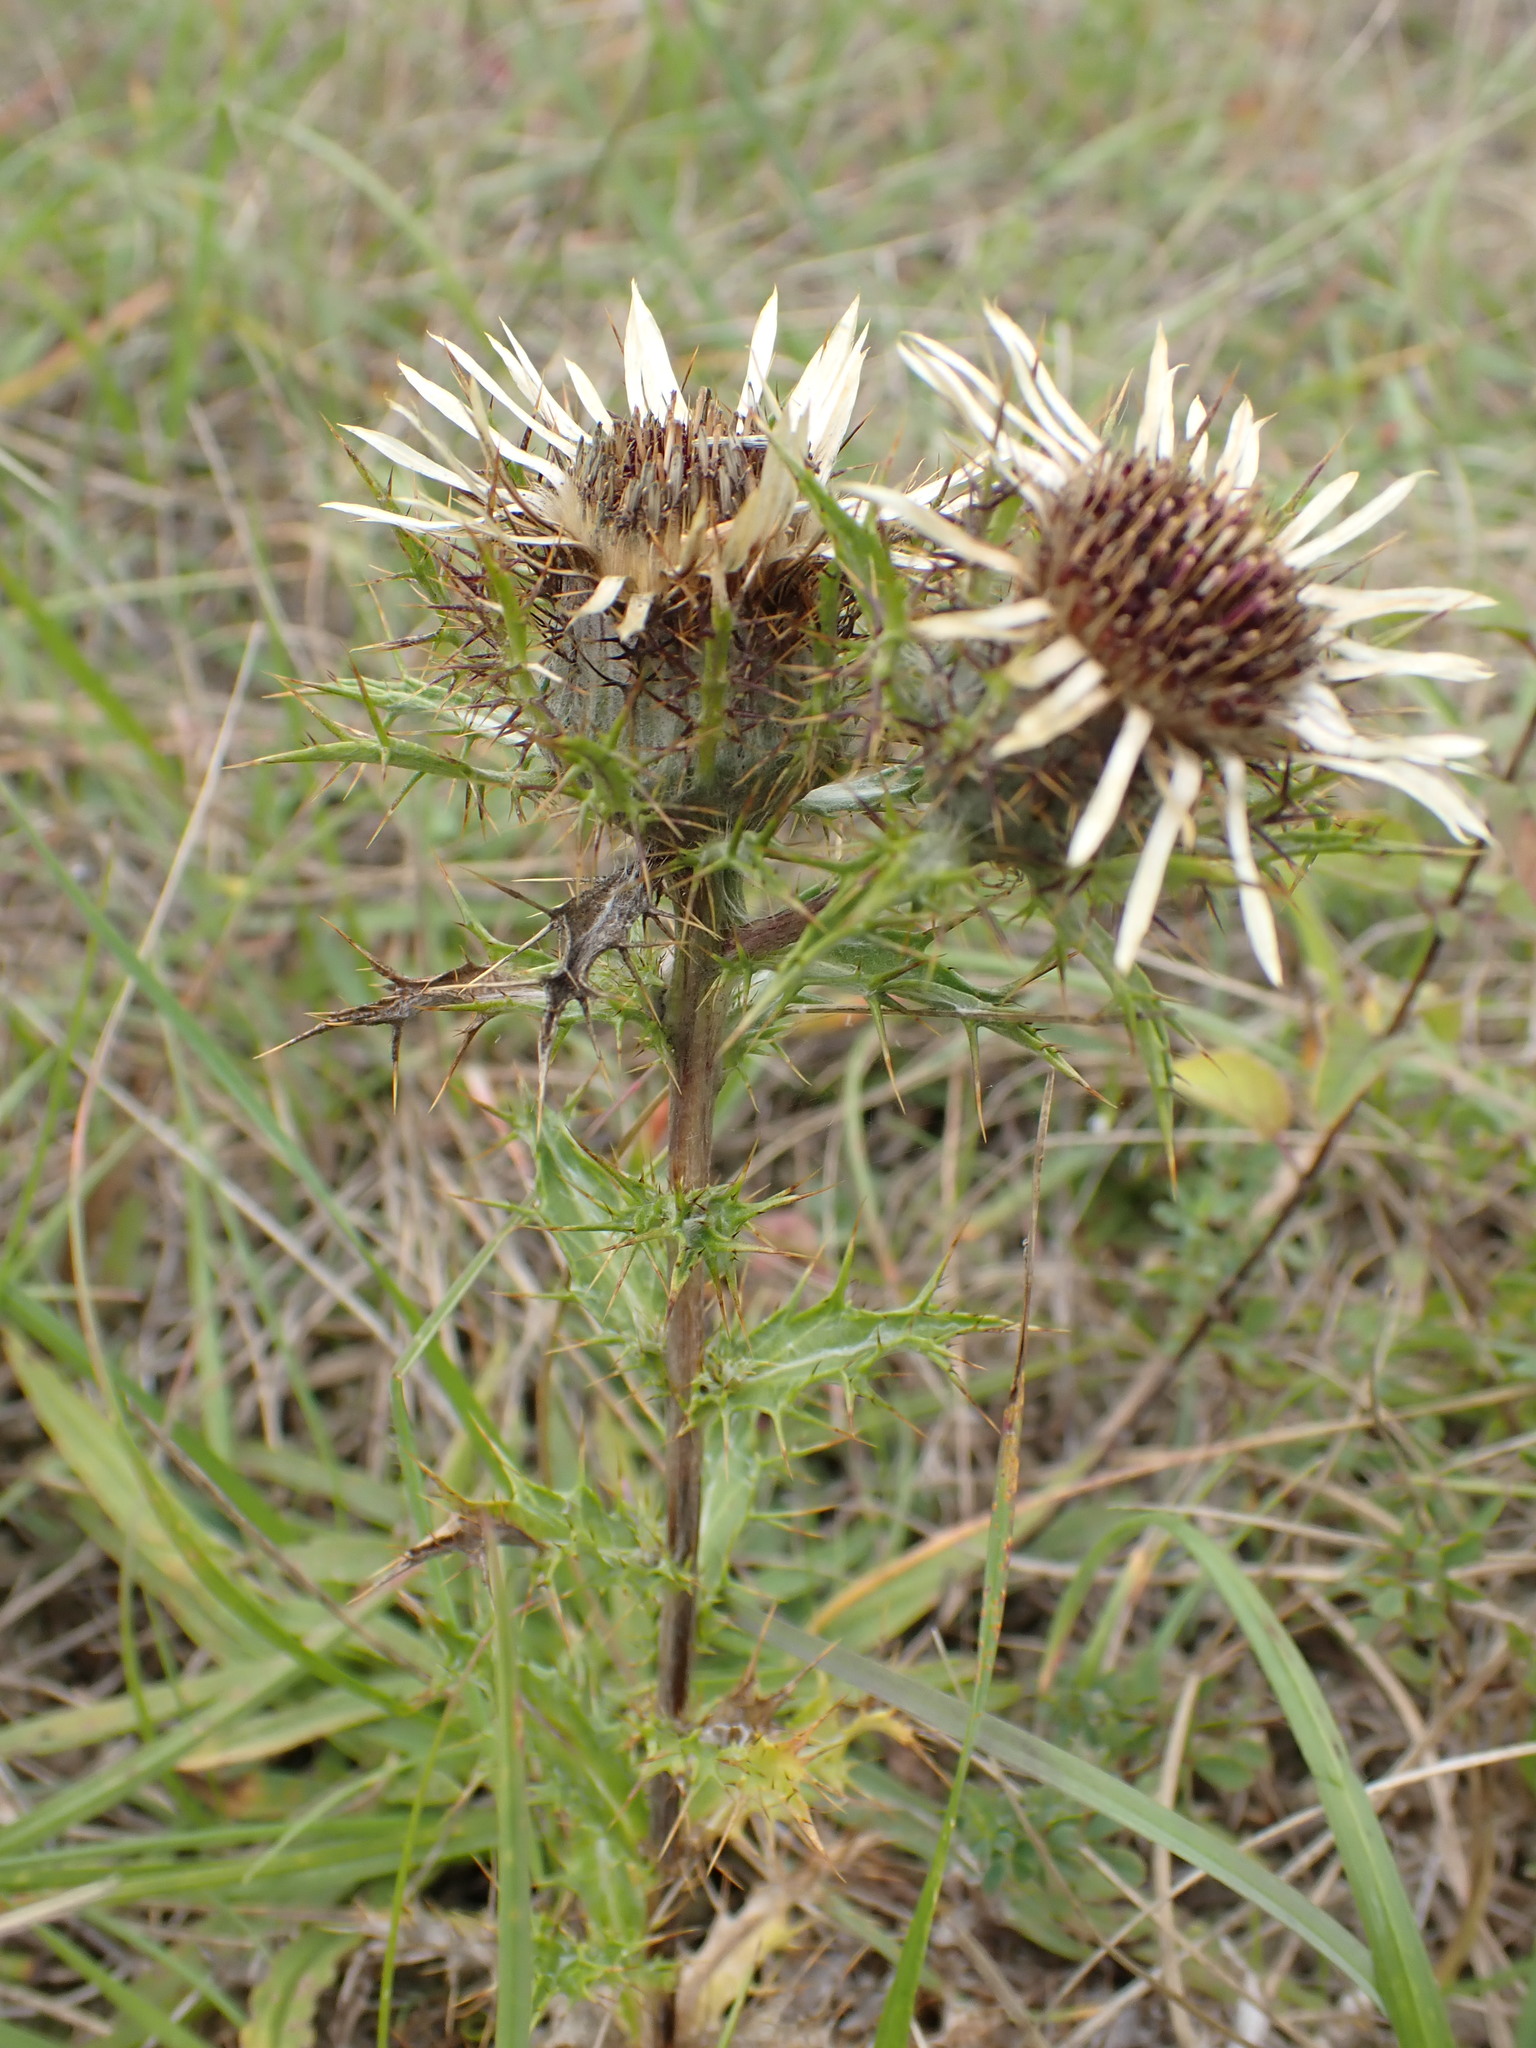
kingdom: Plantae
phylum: Tracheophyta
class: Magnoliopsida
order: Asterales
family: Asteraceae
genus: Carlina
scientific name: Carlina vulgaris
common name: Carline thistle
